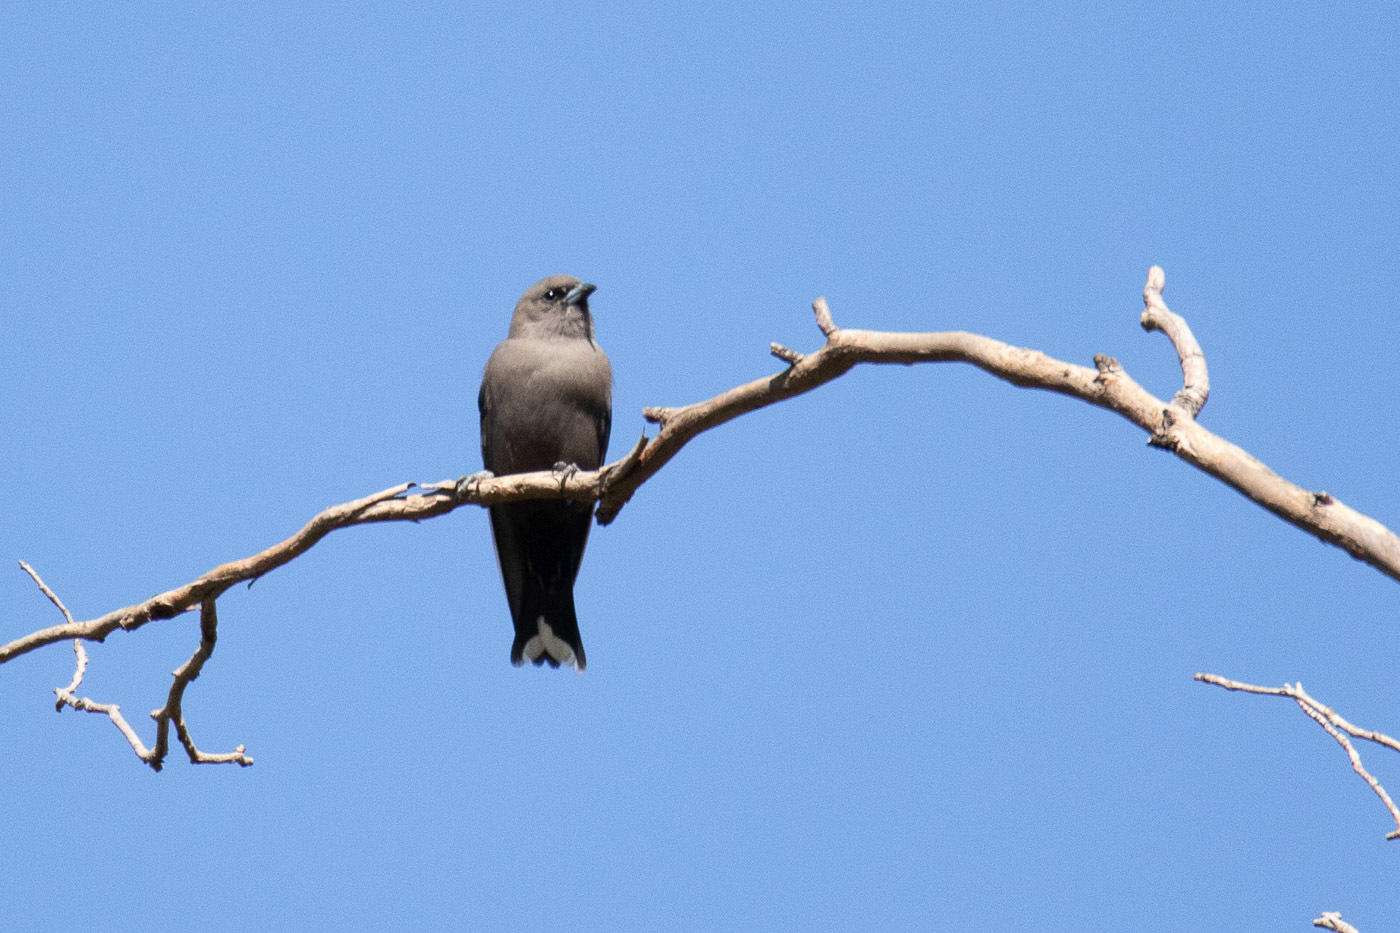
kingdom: Animalia
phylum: Chordata
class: Aves
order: Passeriformes
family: Artamidae
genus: Artamus
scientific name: Artamus cyanopterus
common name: Dusky woodswallow
